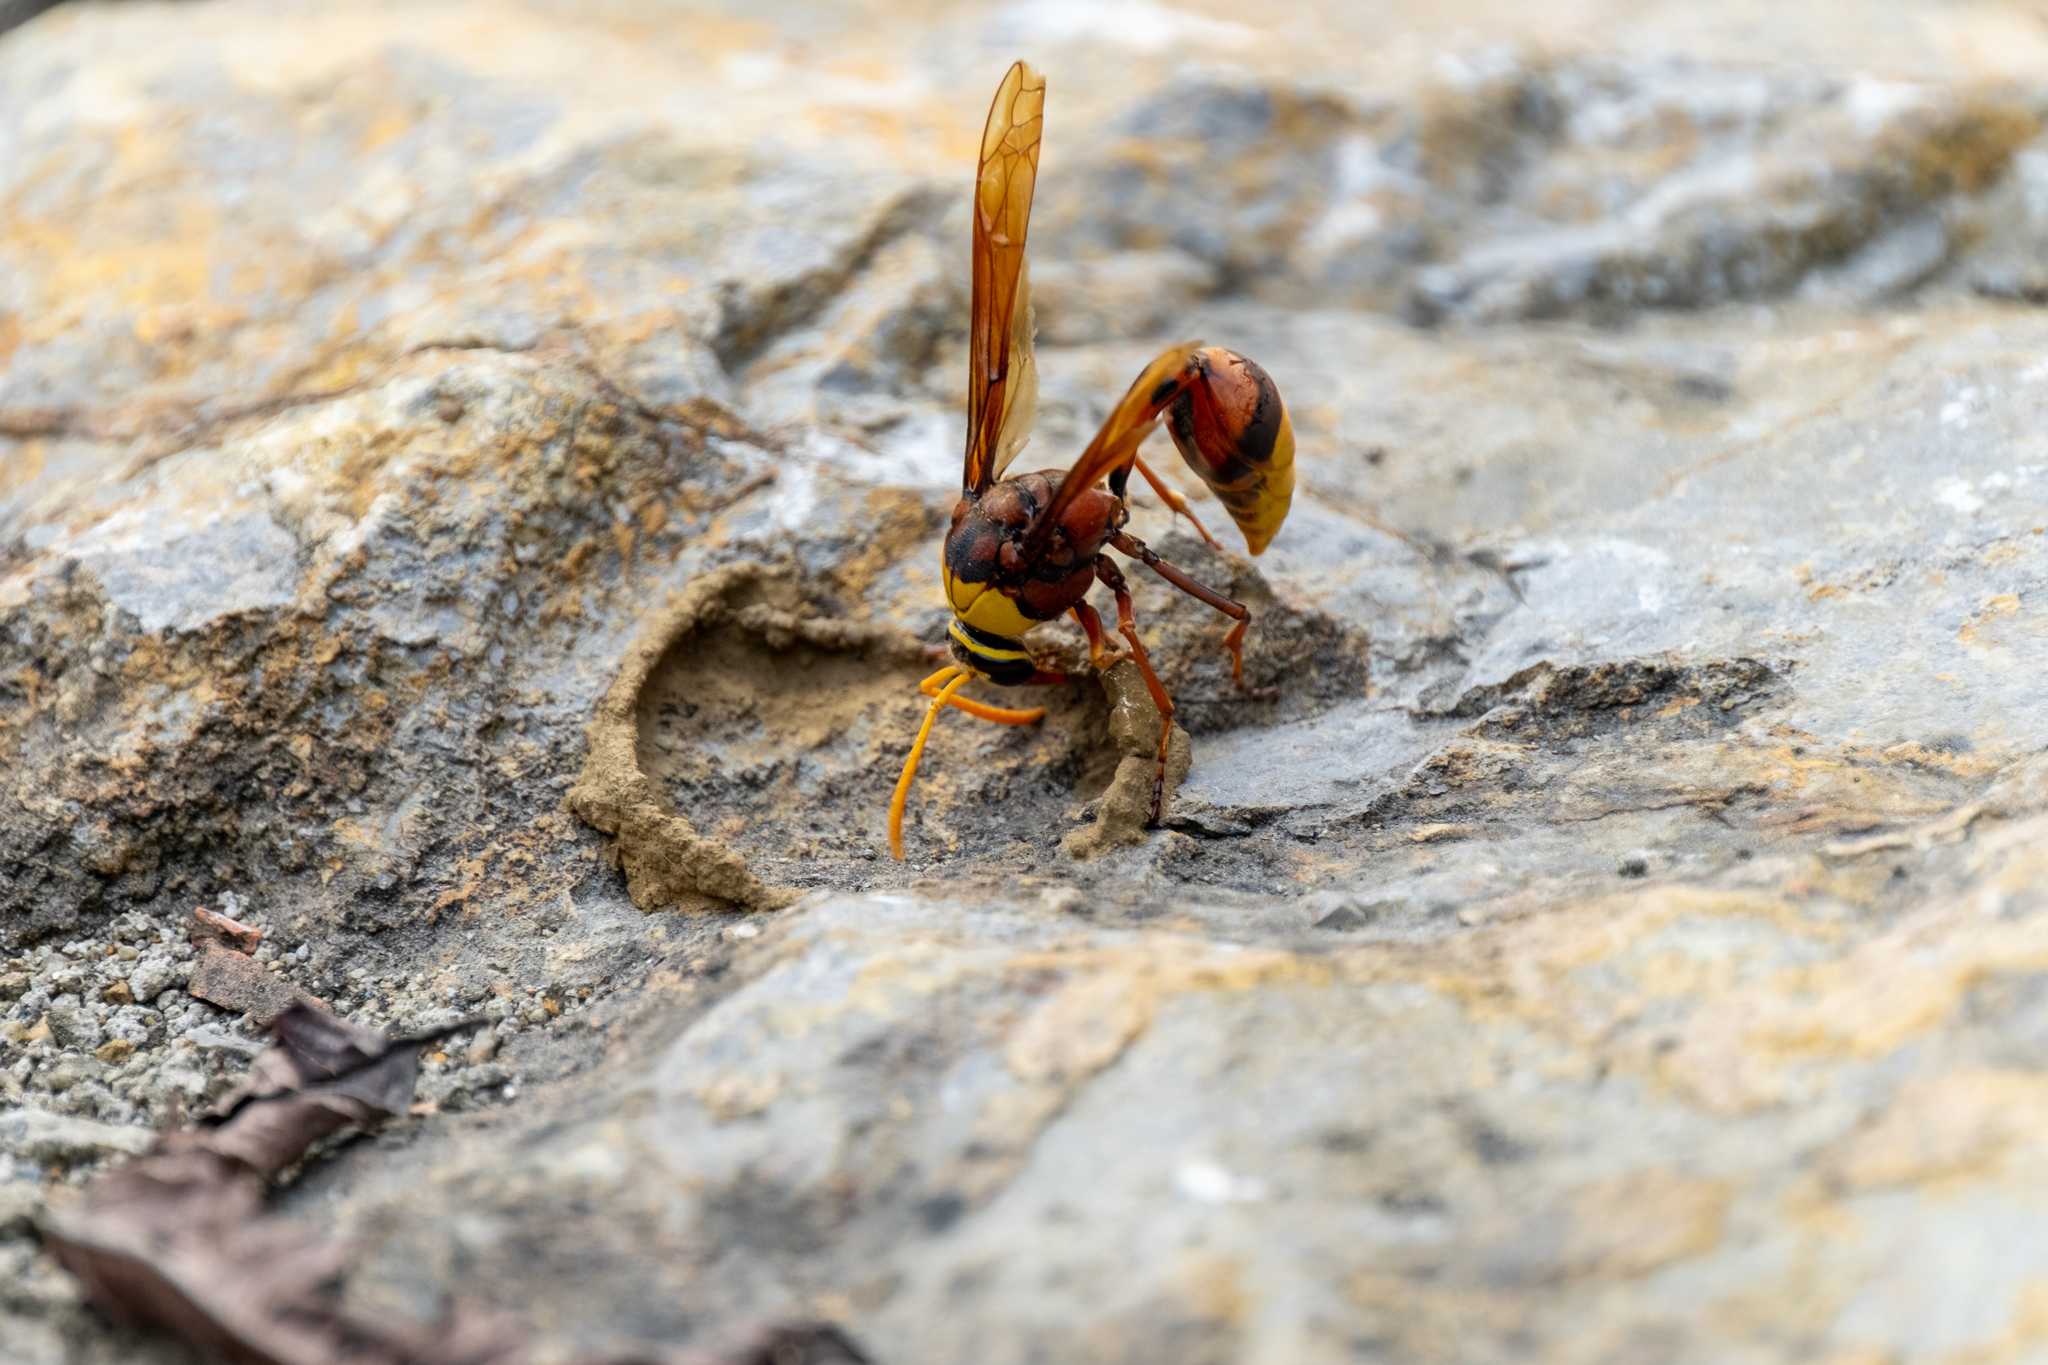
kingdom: Animalia
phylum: Arthropoda
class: Insecta
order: Hymenoptera
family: Eumenidae
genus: Delta
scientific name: Delta pyriforme
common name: Wasp
